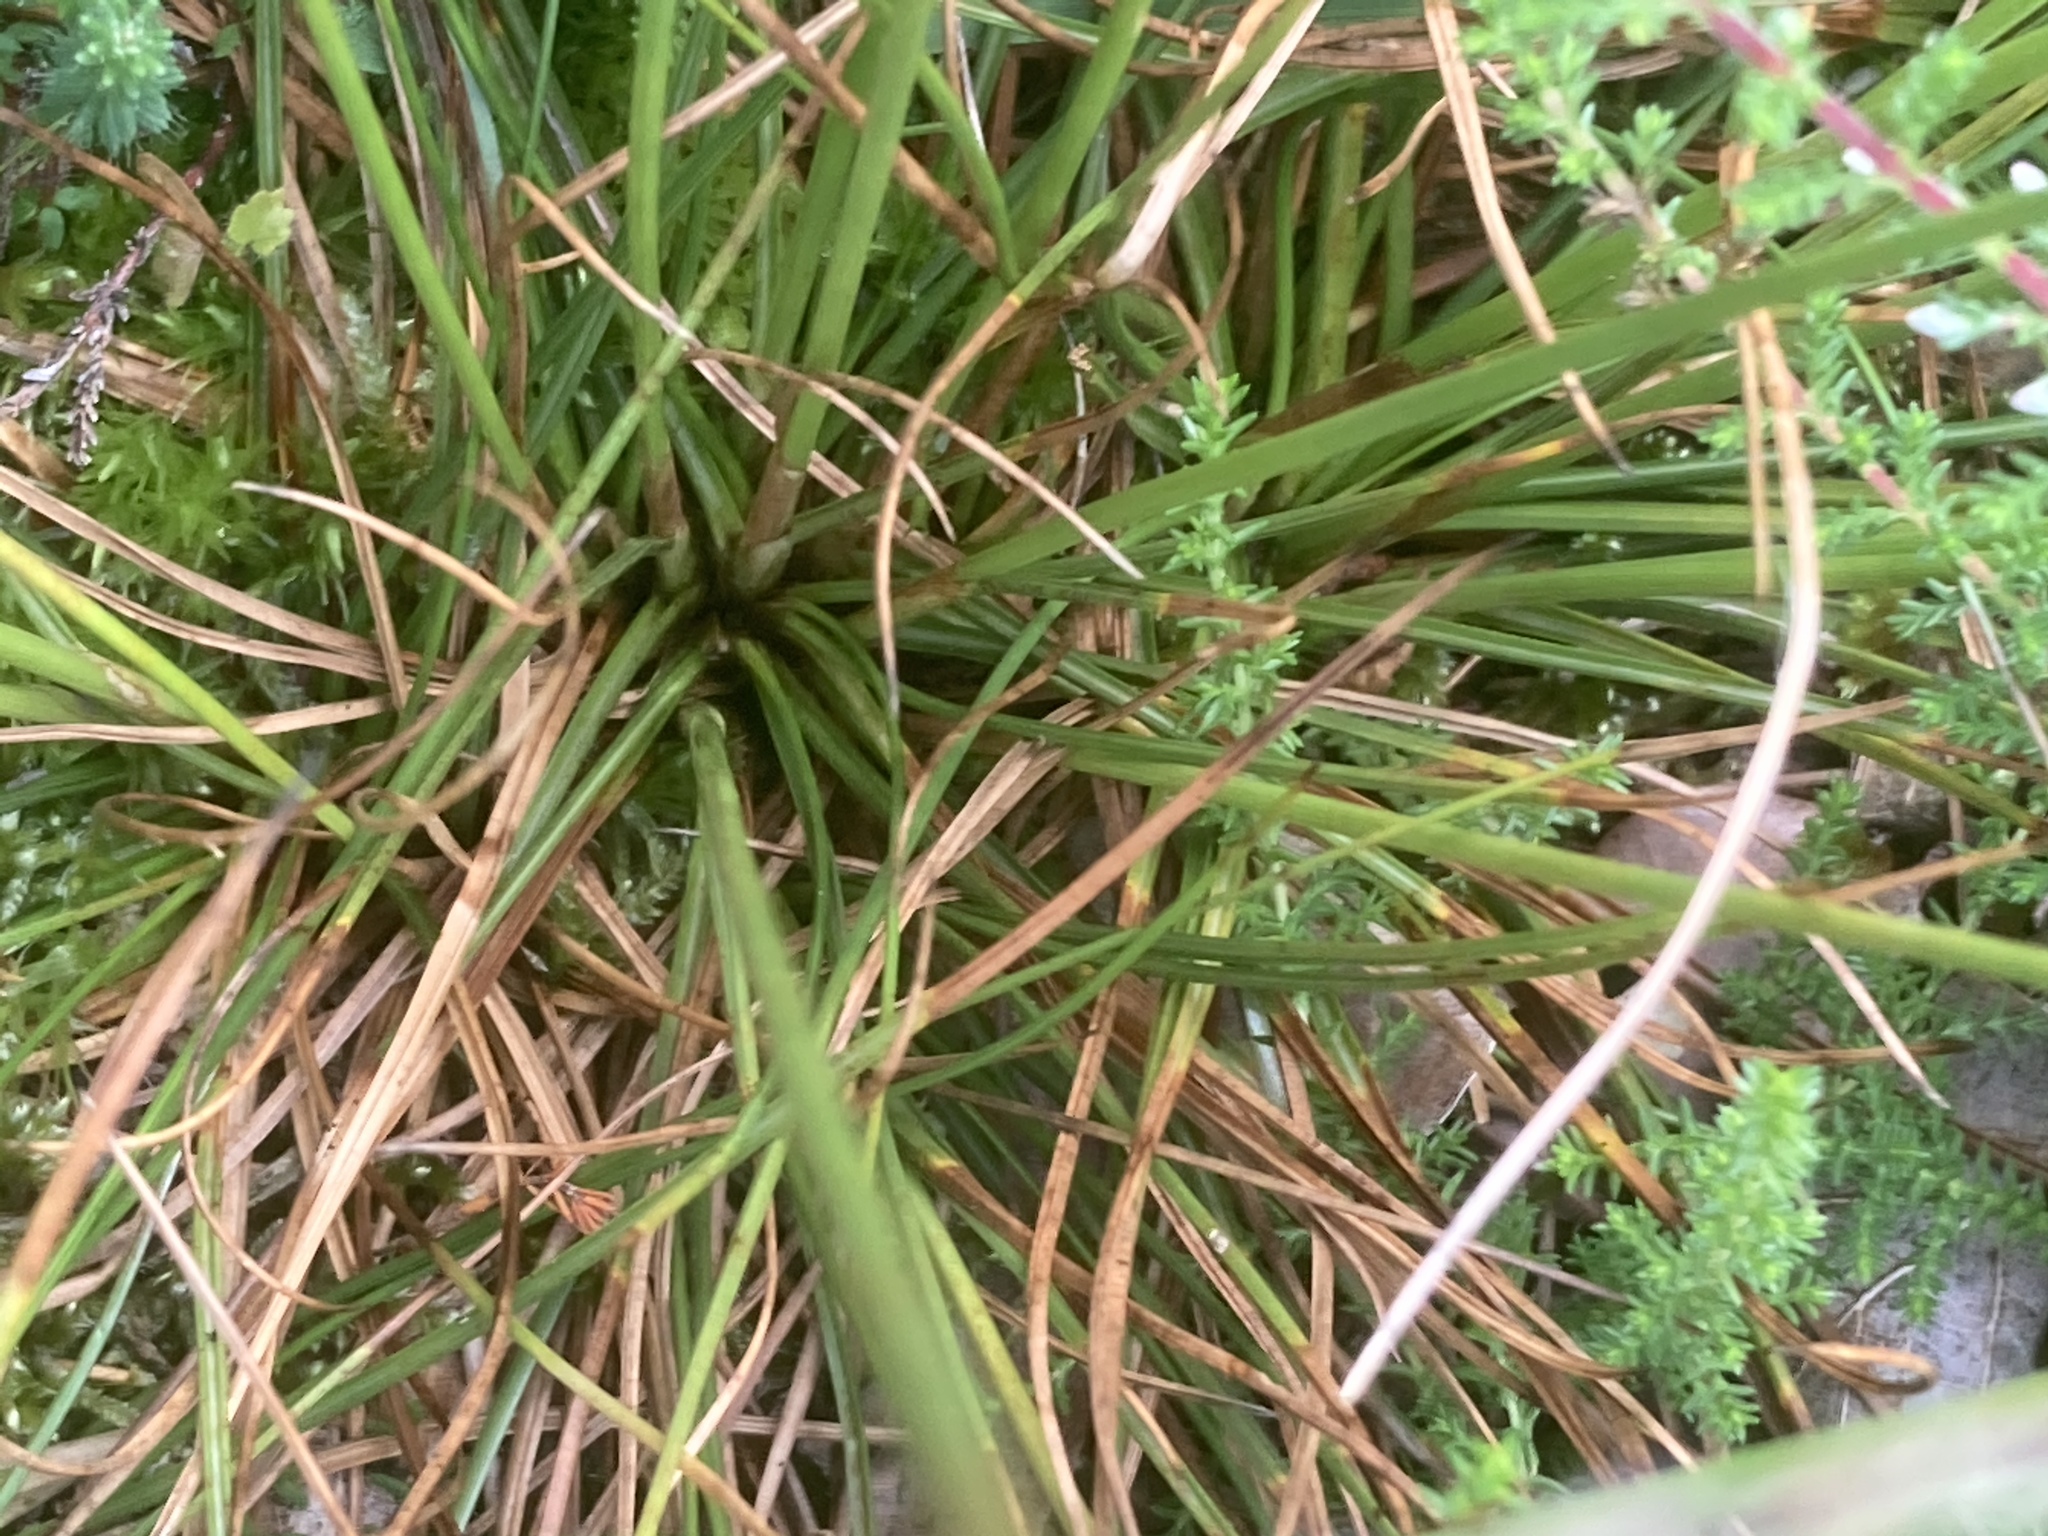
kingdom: Plantae
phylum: Tracheophyta
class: Liliopsida
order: Poales
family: Juncaceae
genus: Juncus
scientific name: Juncus squarrosus
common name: Heath rush
